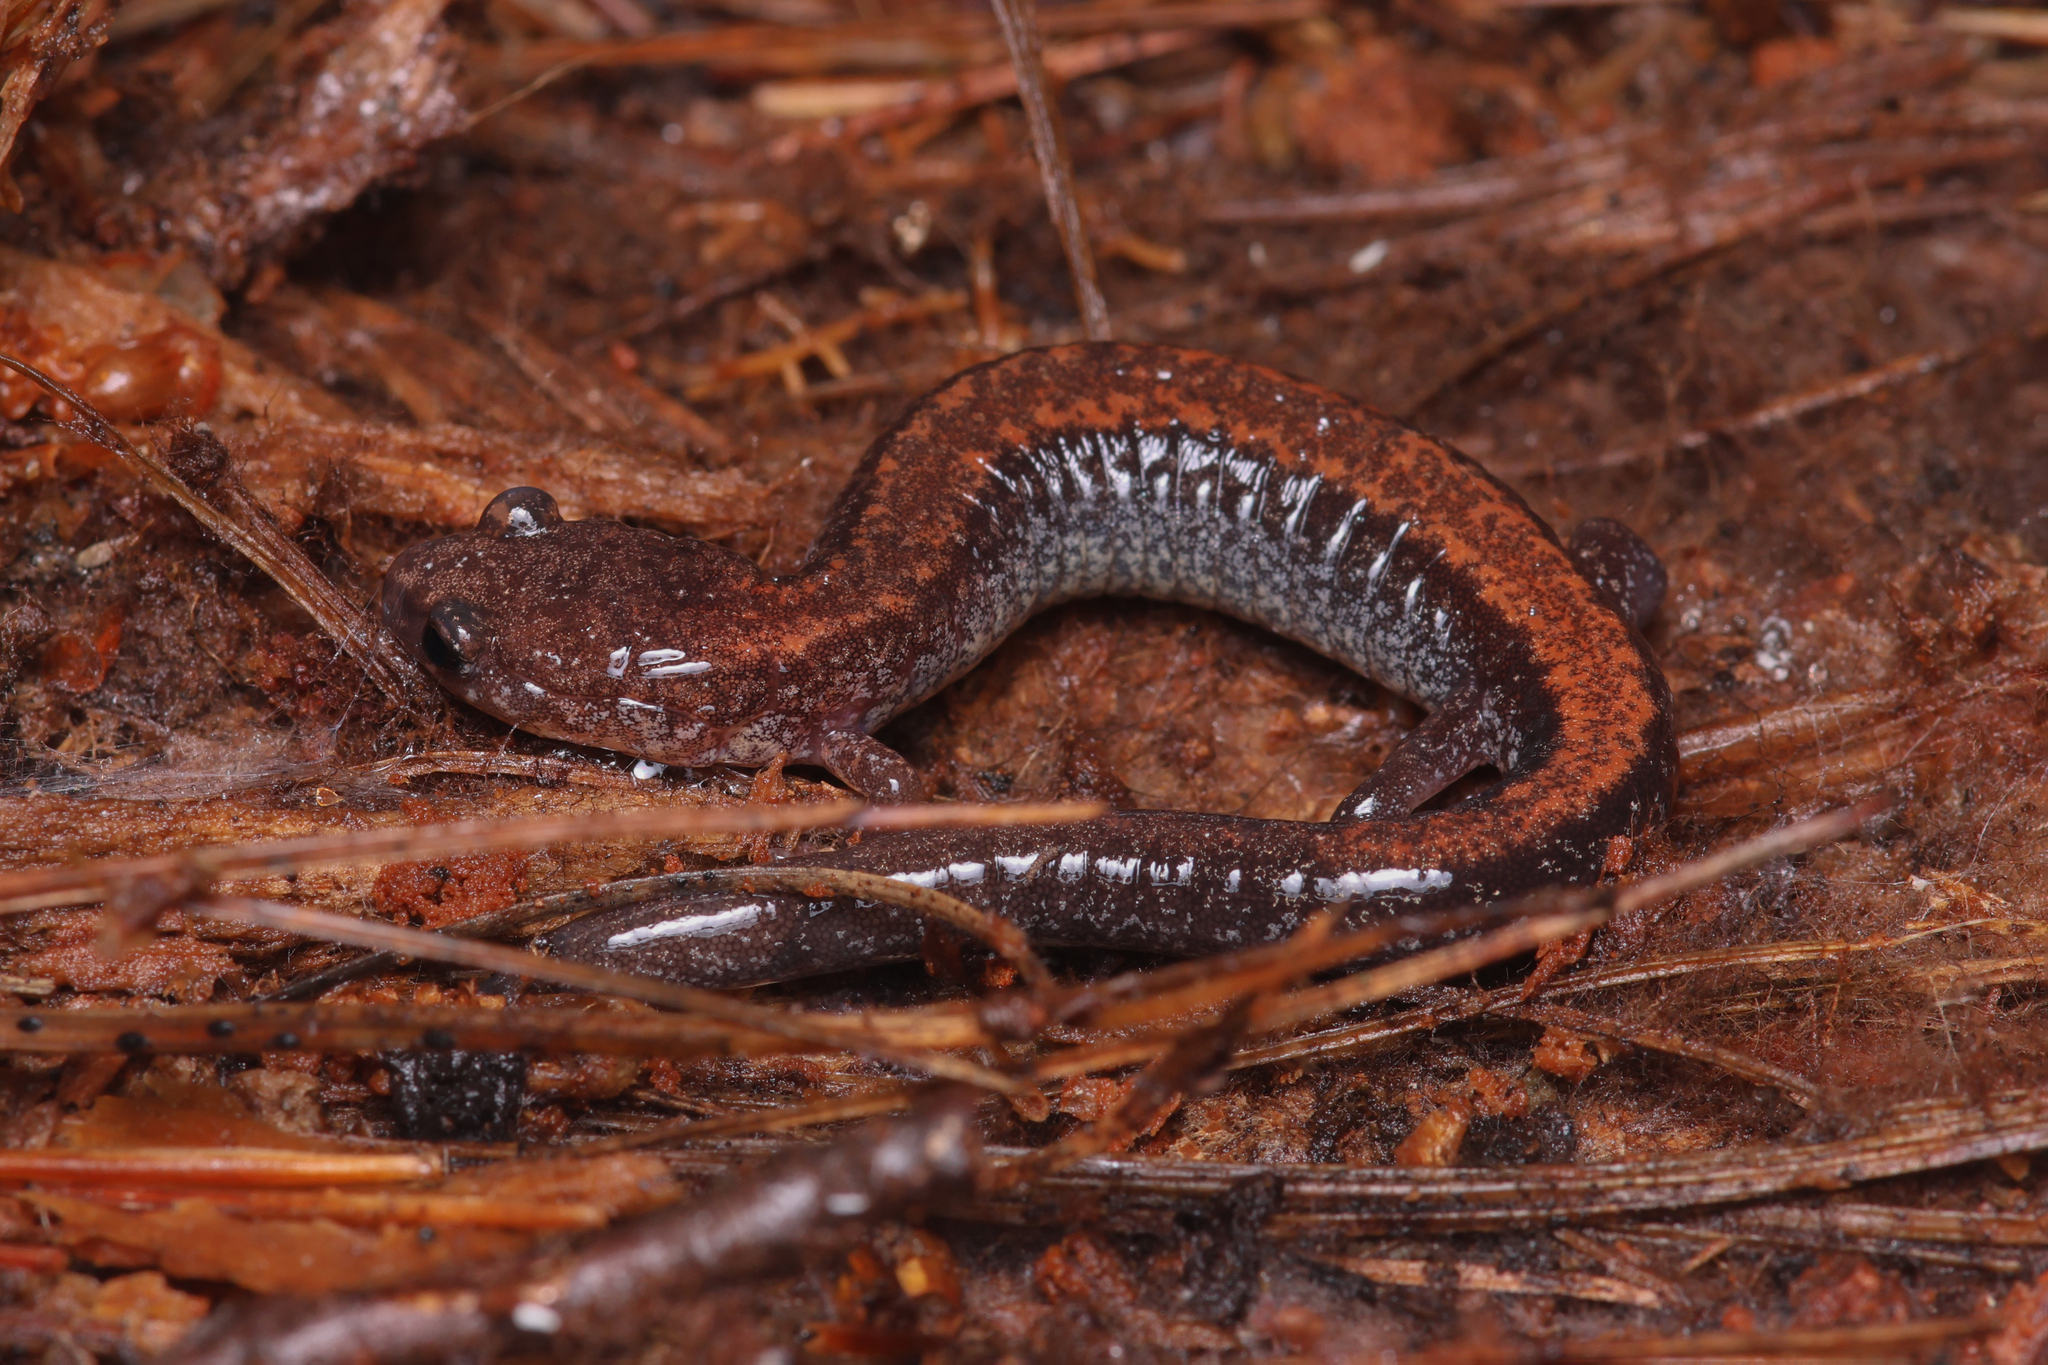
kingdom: Animalia
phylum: Chordata
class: Amphibia
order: Caudata
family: Plethodontidae
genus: Plethodon
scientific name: Plethodon cinereus
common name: Redback salamander
